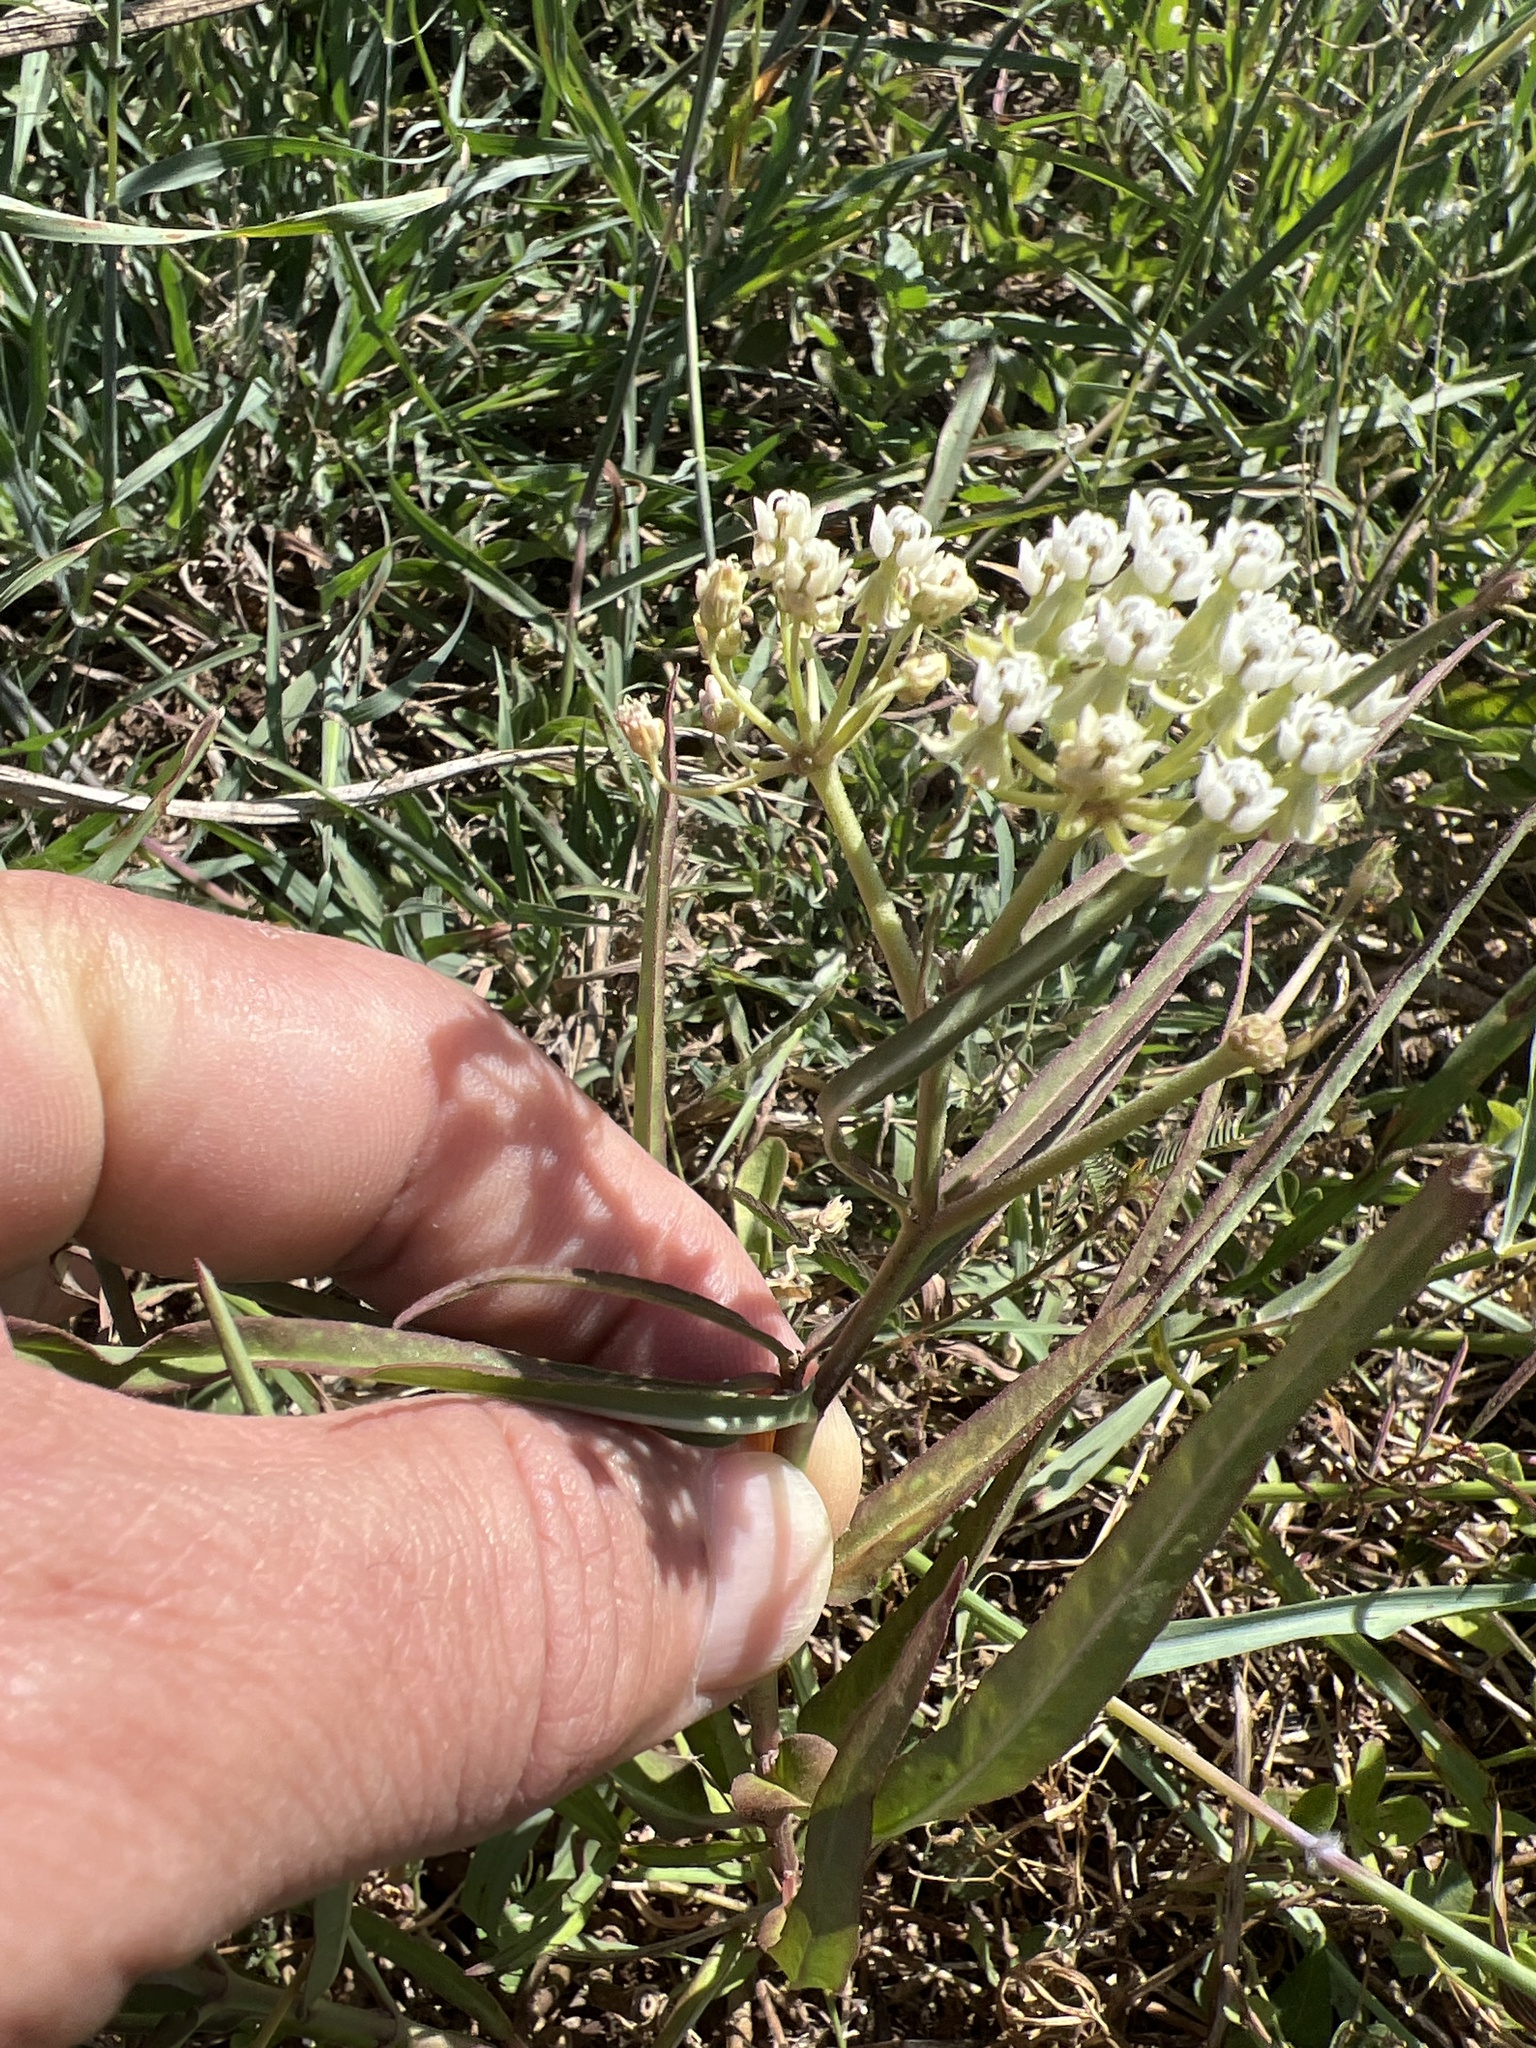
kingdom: Plantae
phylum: Tracheophyta
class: Magnoliopsida
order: Gentianales
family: Apocynaceae
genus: Asclepias
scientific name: Asclepias woodsoniana
